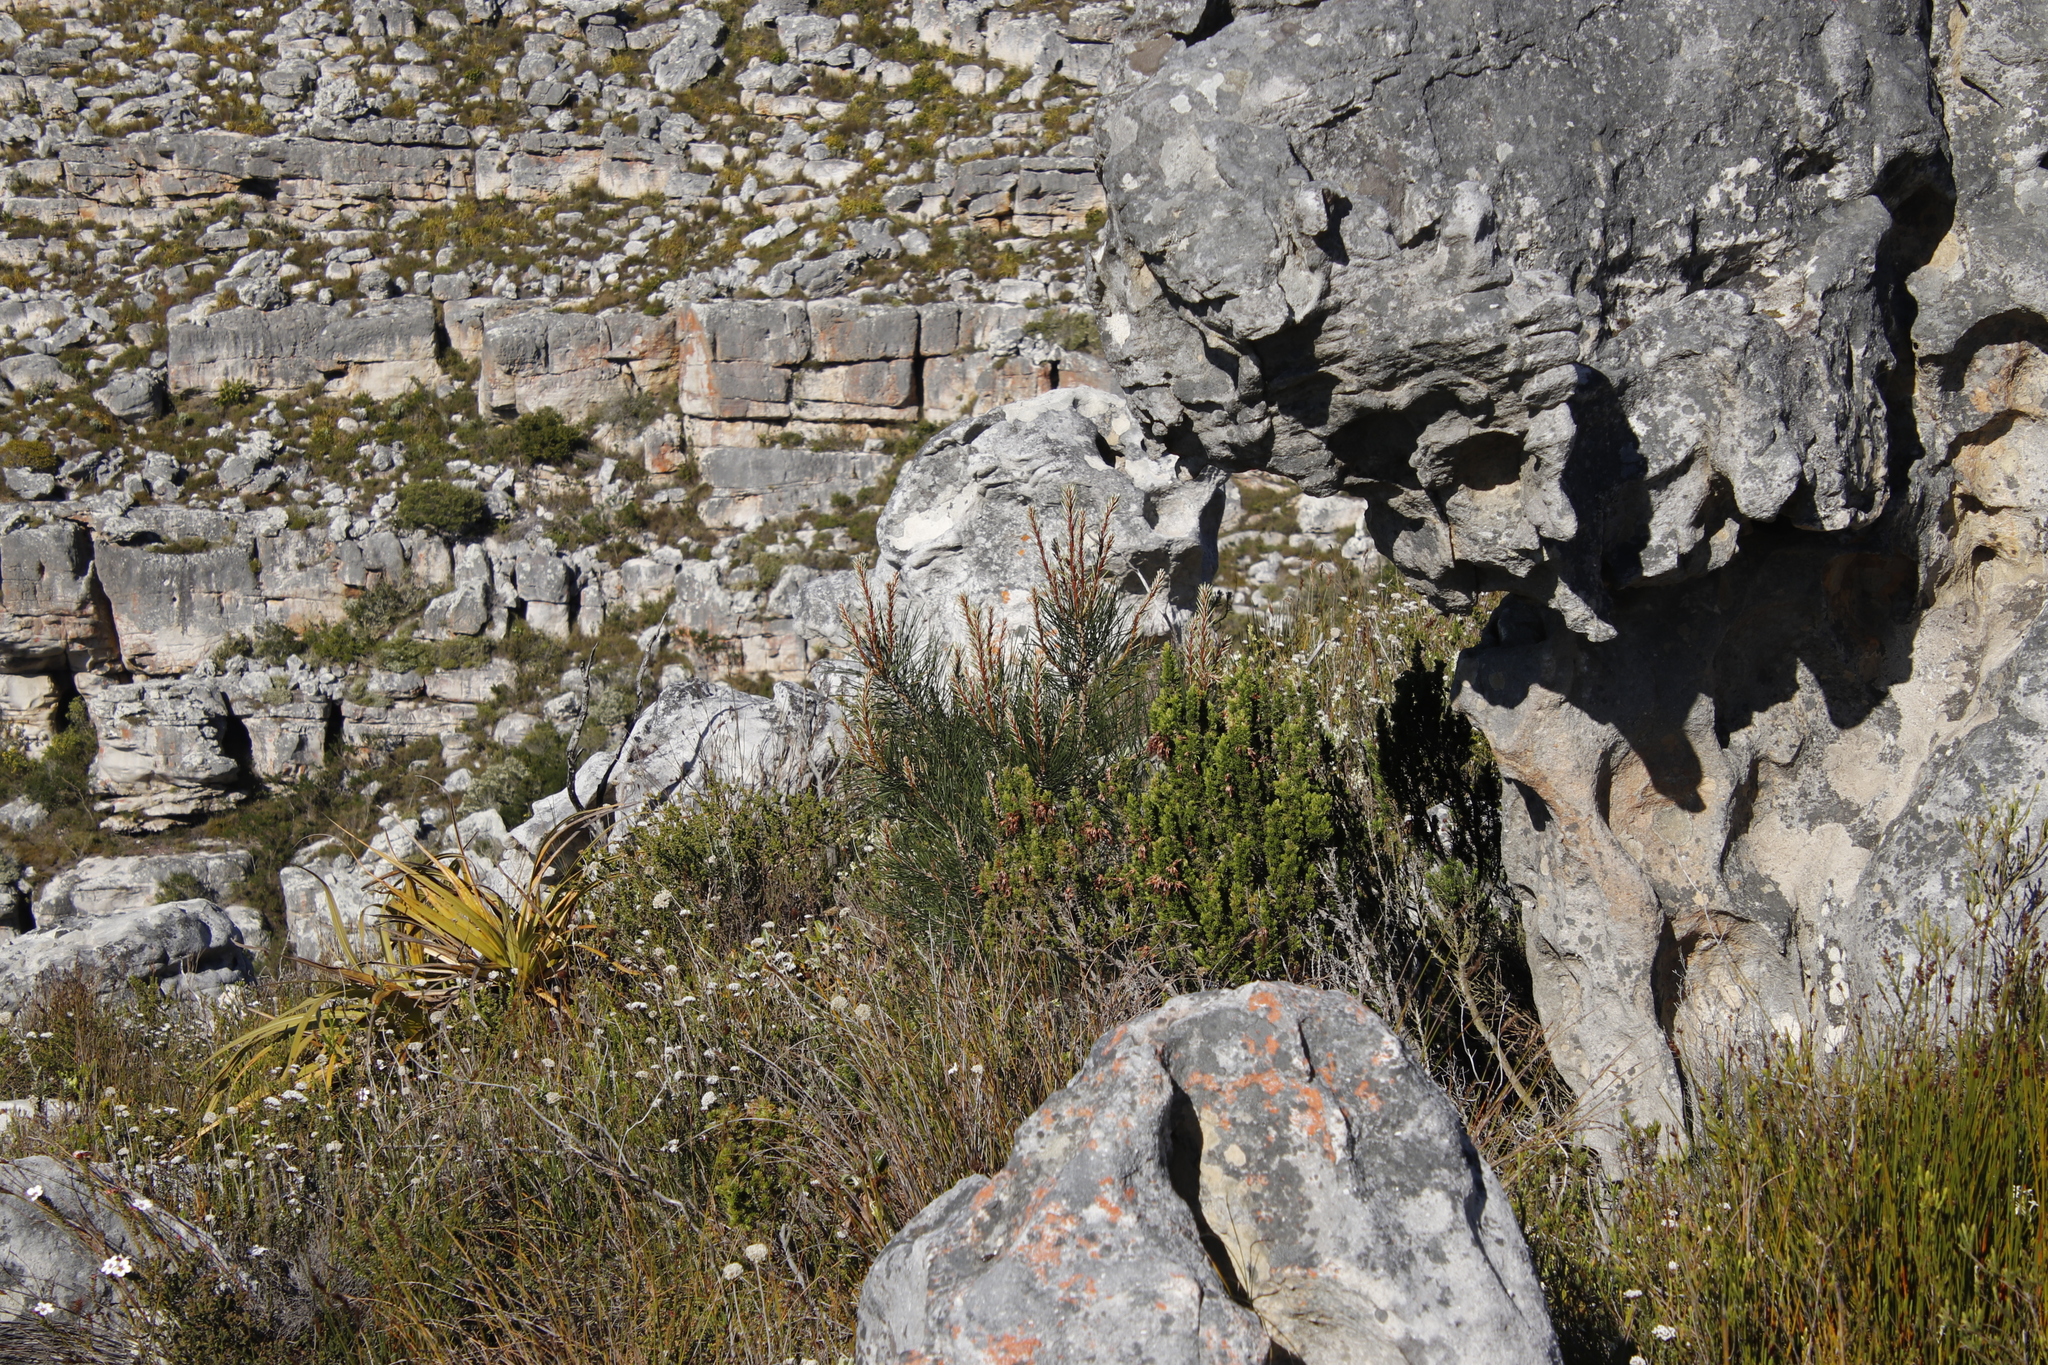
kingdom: Plantae
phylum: Tracheophyta
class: Pinopsida
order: Pinales
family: Pinaceae
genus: Pinus
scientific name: Pinus pinaster
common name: Maritime pine
